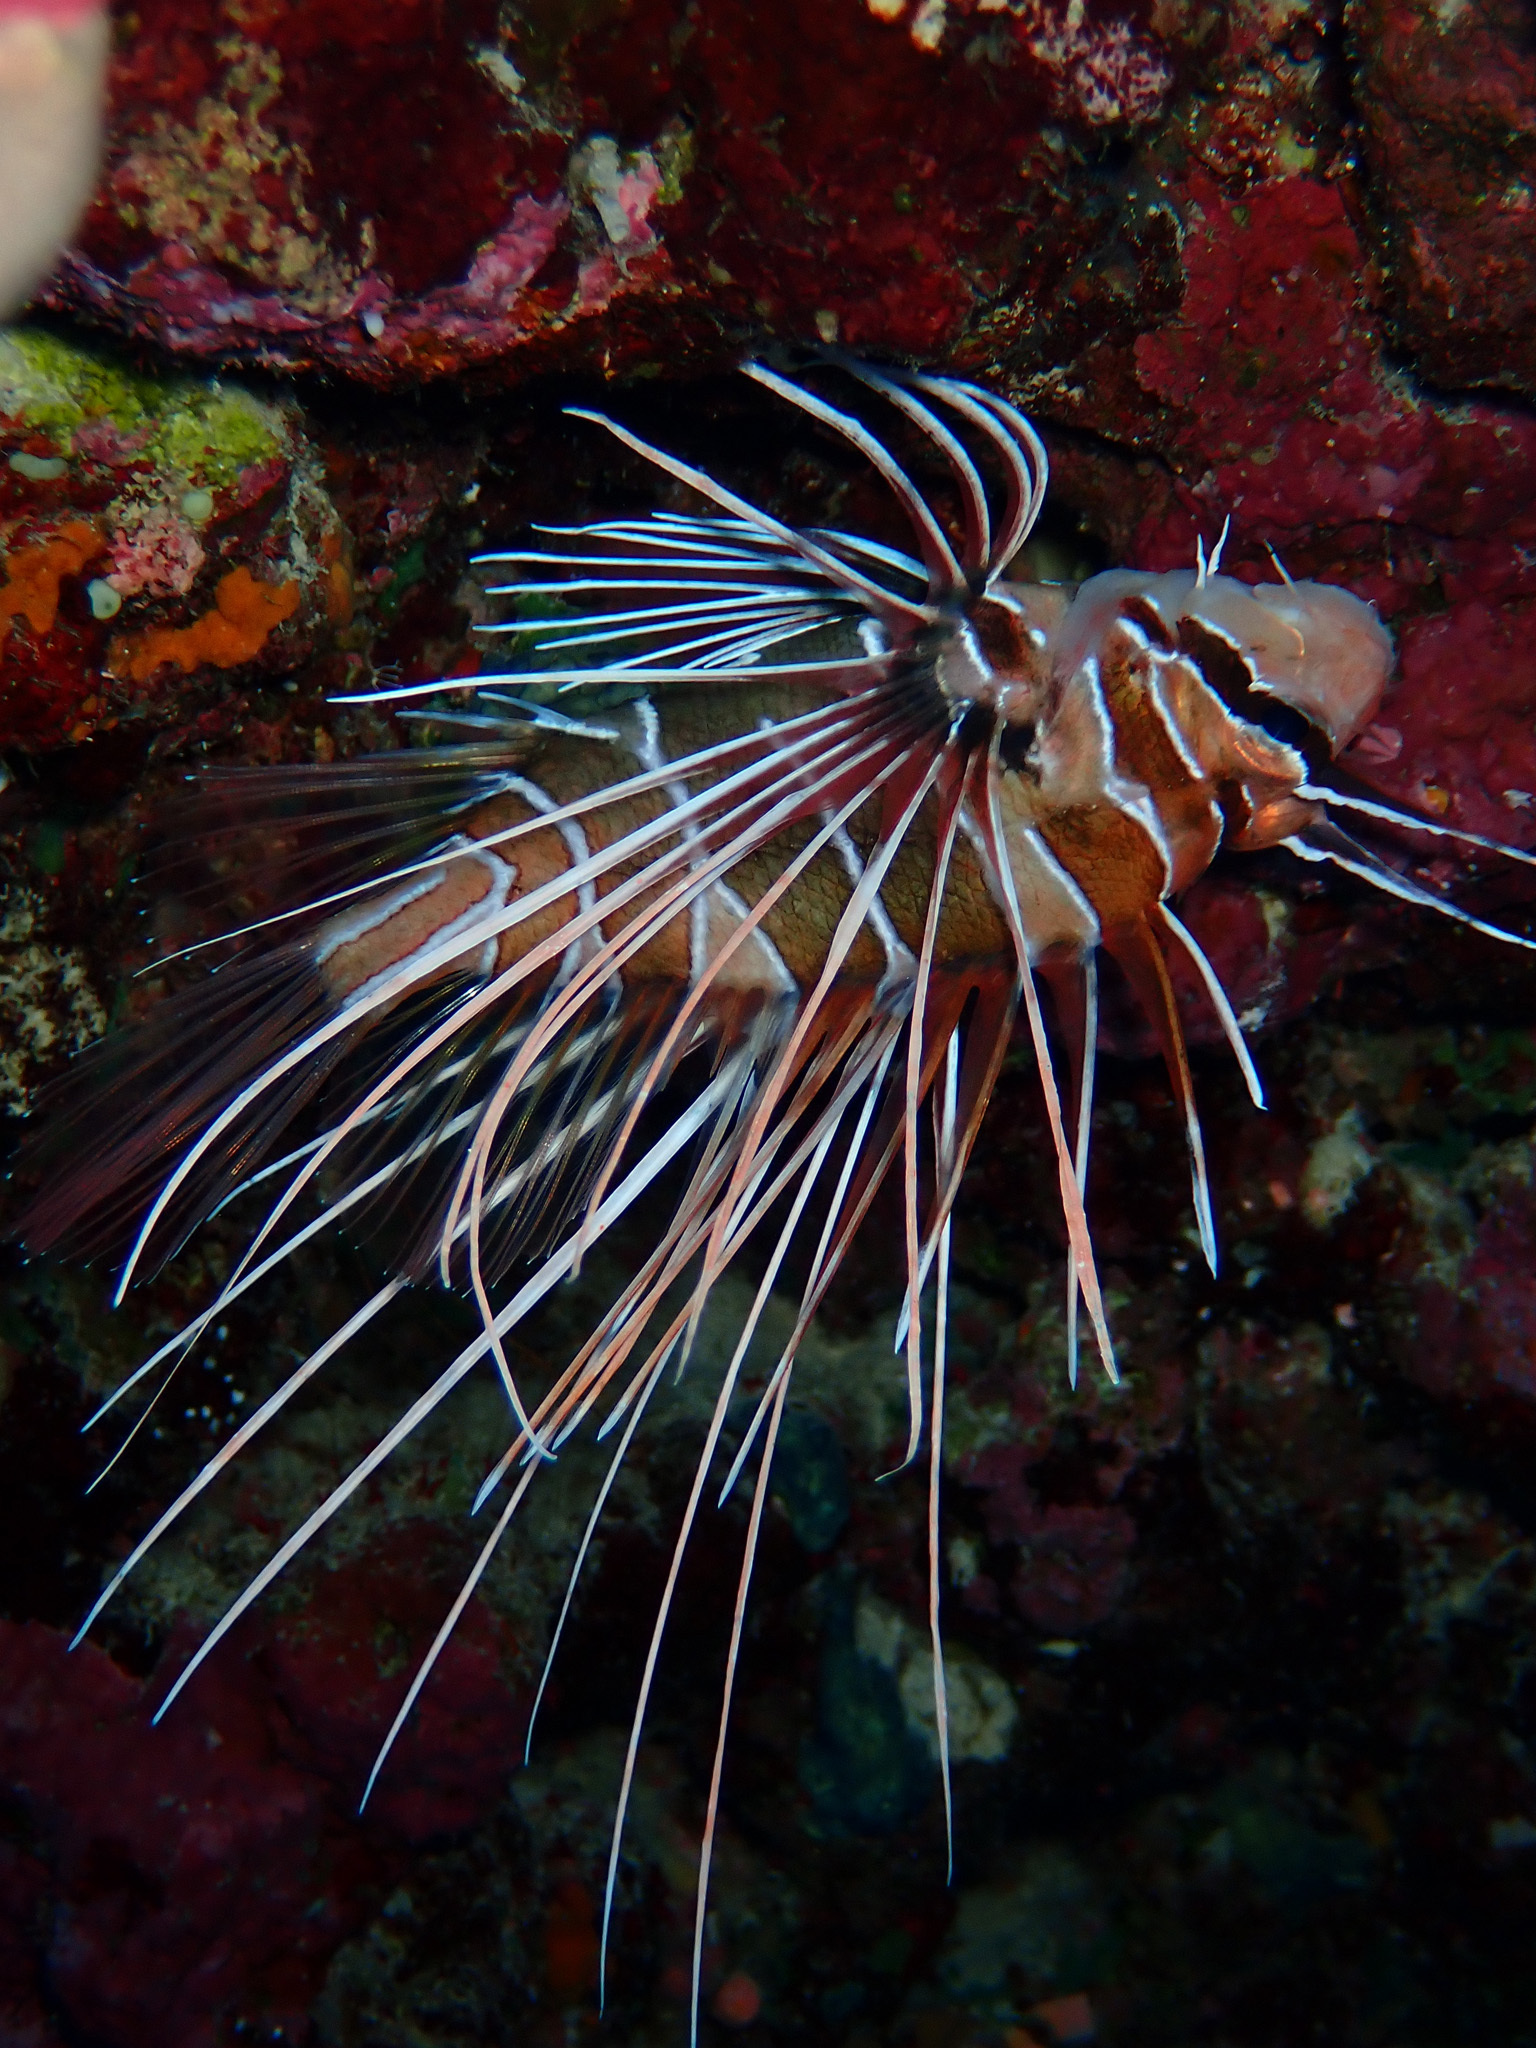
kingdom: Animalia
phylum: Chordata
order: Scorpaeniformes
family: Scorpaenidae
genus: Pterois
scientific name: Pterois cincta
